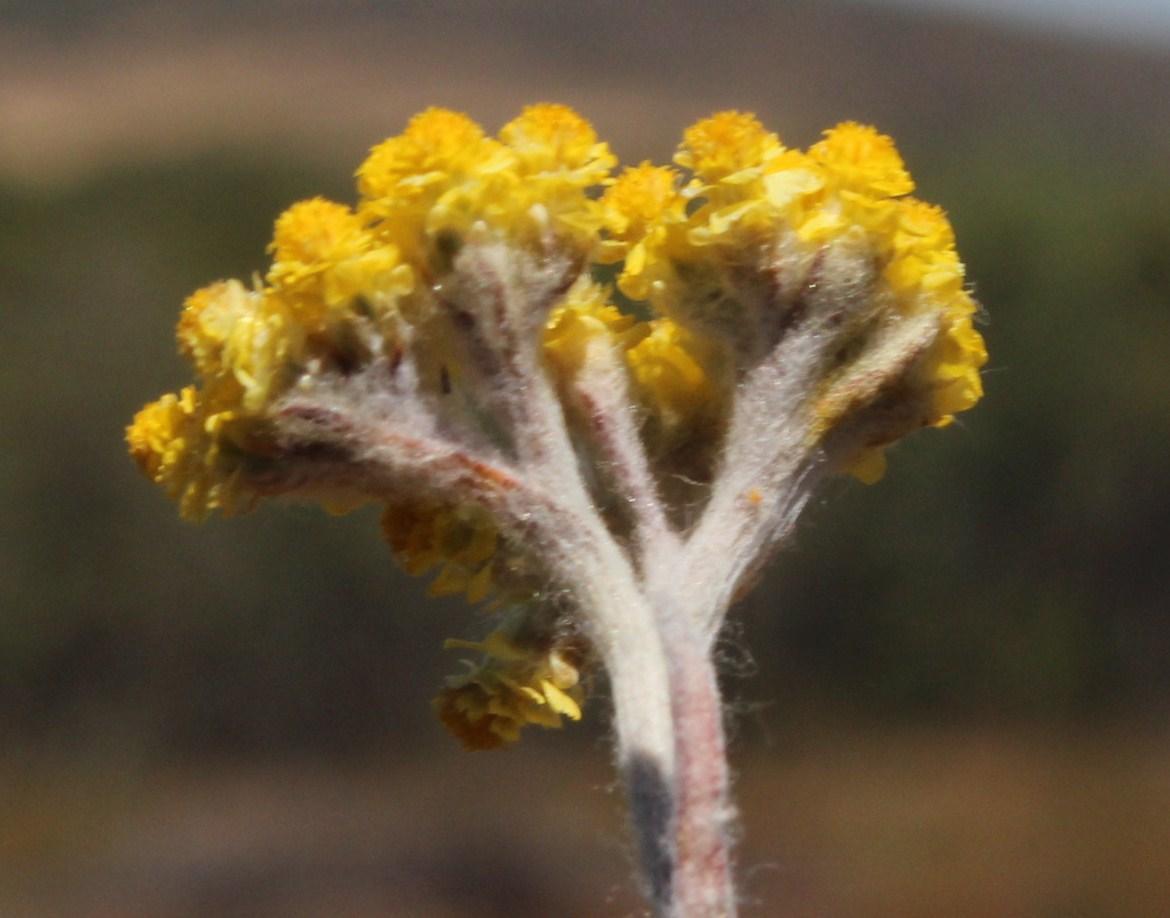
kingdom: Plantae
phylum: Tracheophyta
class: Magnoliopsida
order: Asterales
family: Asteraceae
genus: Helichrysum
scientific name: Helichrysum moeserianum
